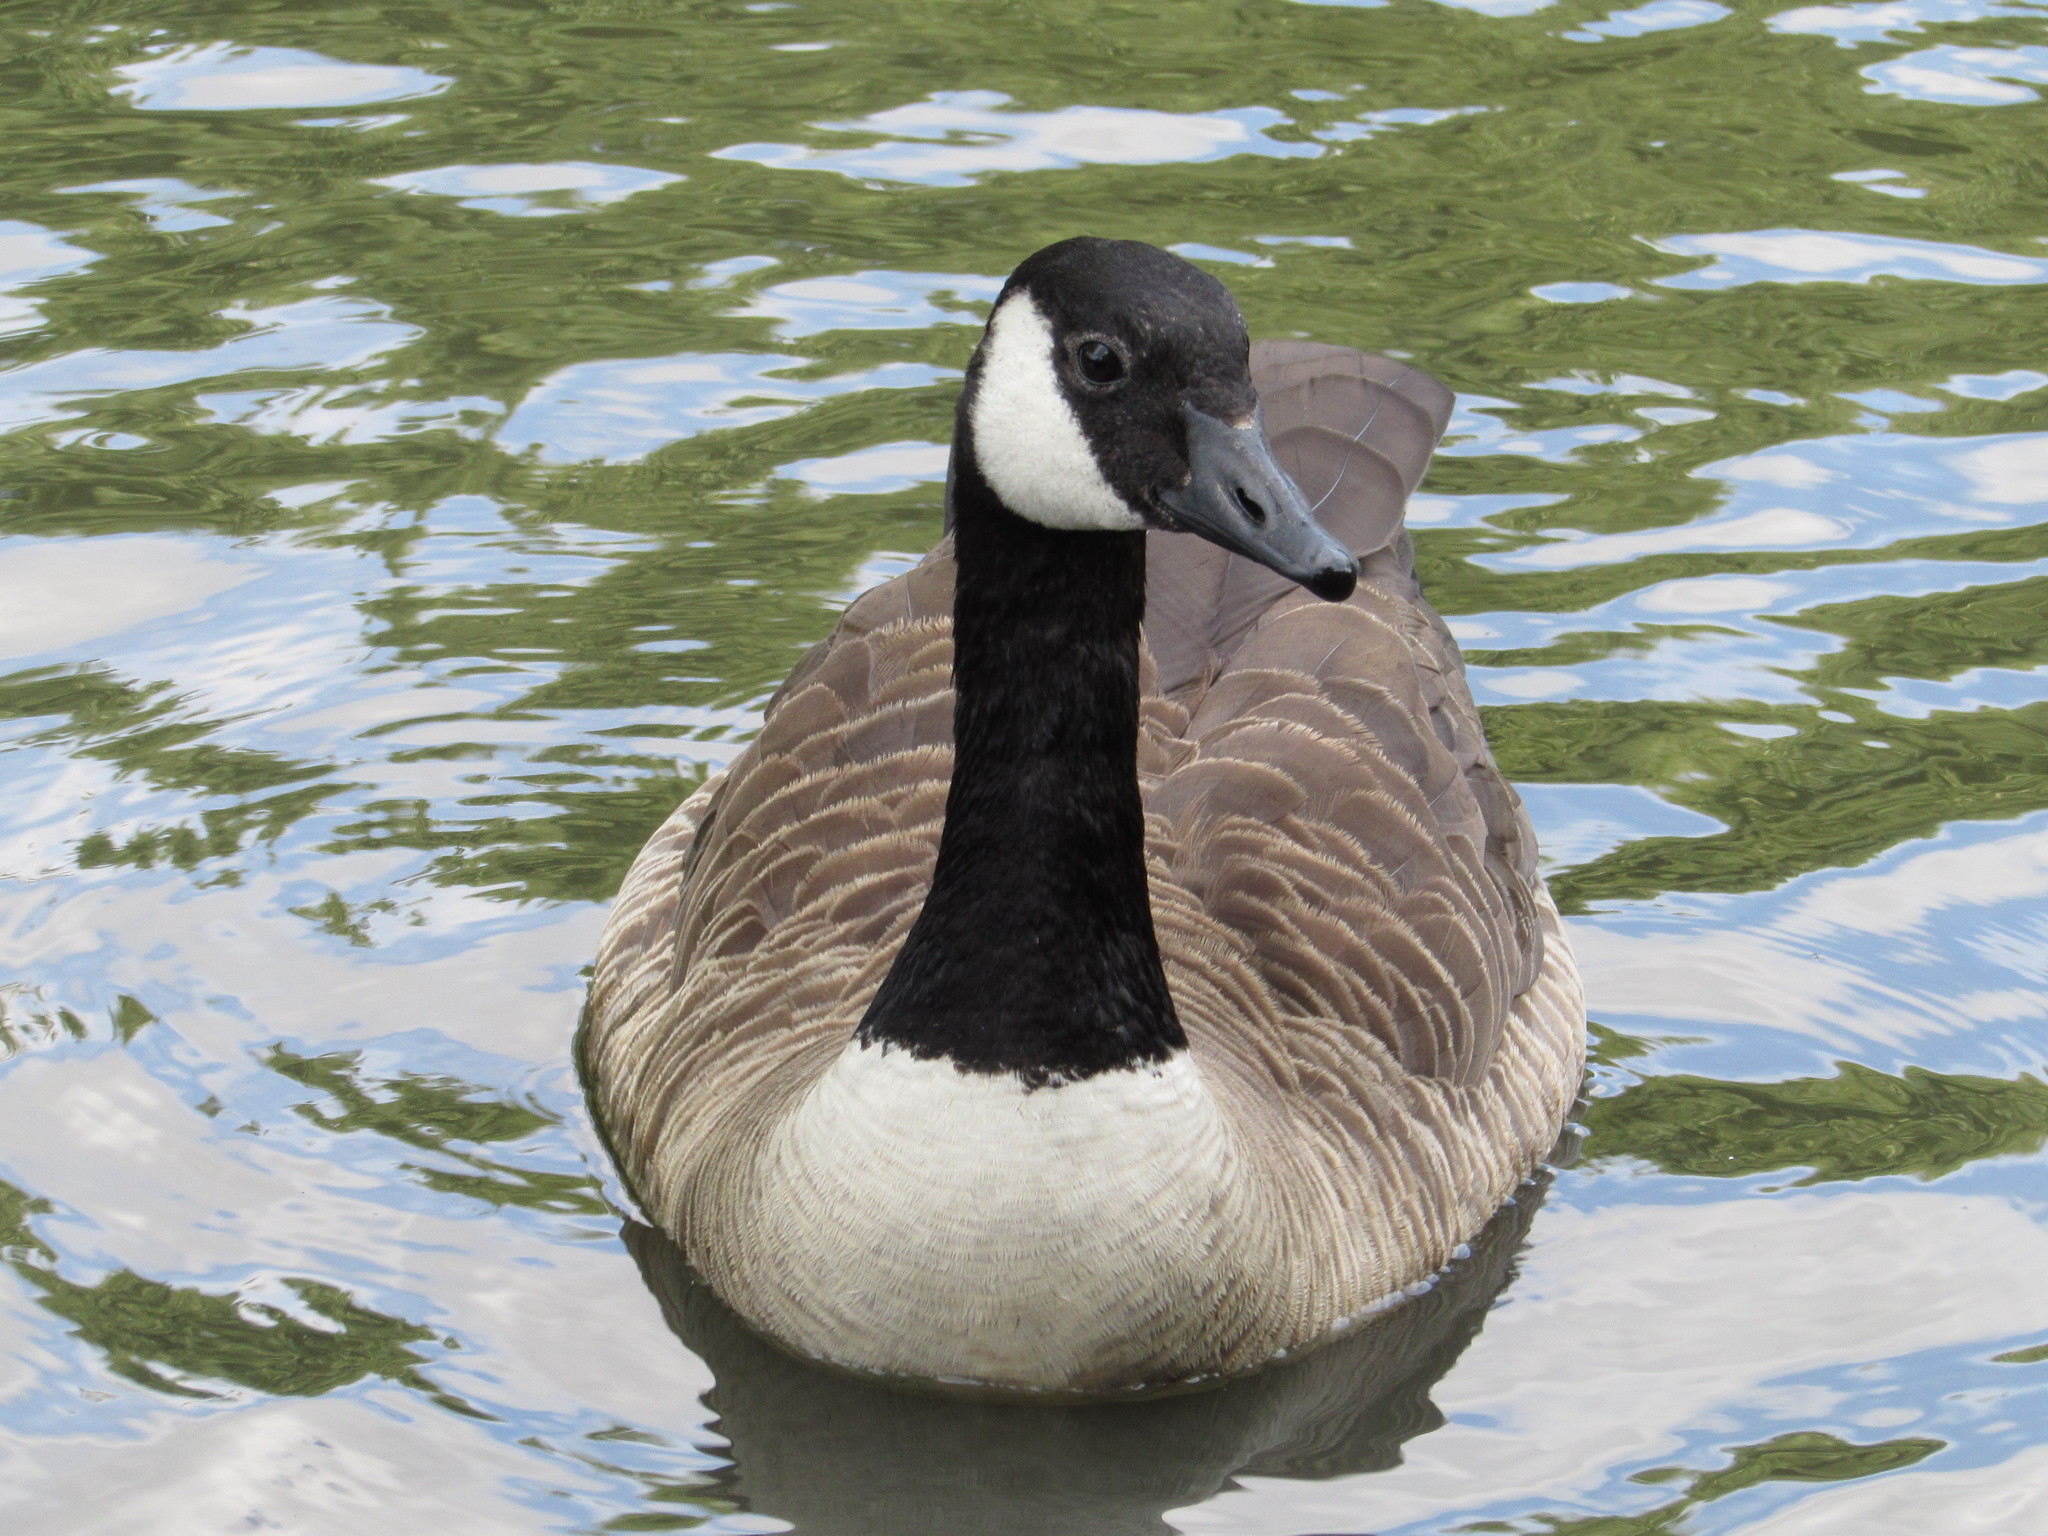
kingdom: Animalia
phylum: Chordata
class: Aves
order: Anseriformes
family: Anatidae
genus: Branta
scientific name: Branta canadensis
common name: Canada goose
